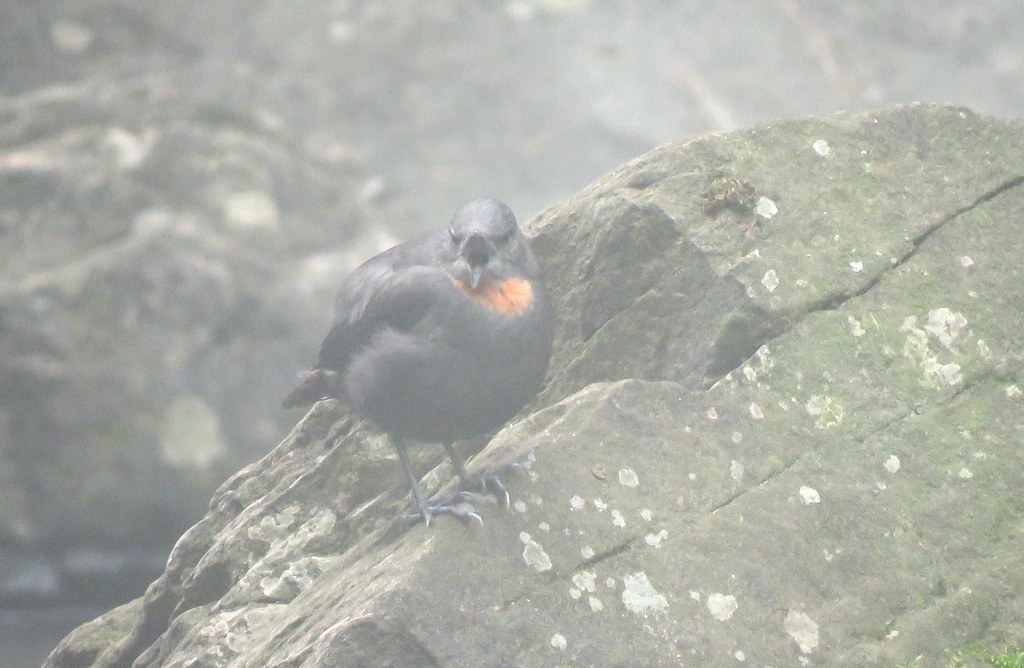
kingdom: Animalia
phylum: Chordata
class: Aves
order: Passeriformes
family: Cinclidae
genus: Cinclus
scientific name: Cinclus schulzii
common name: Rufous-throated dipper
